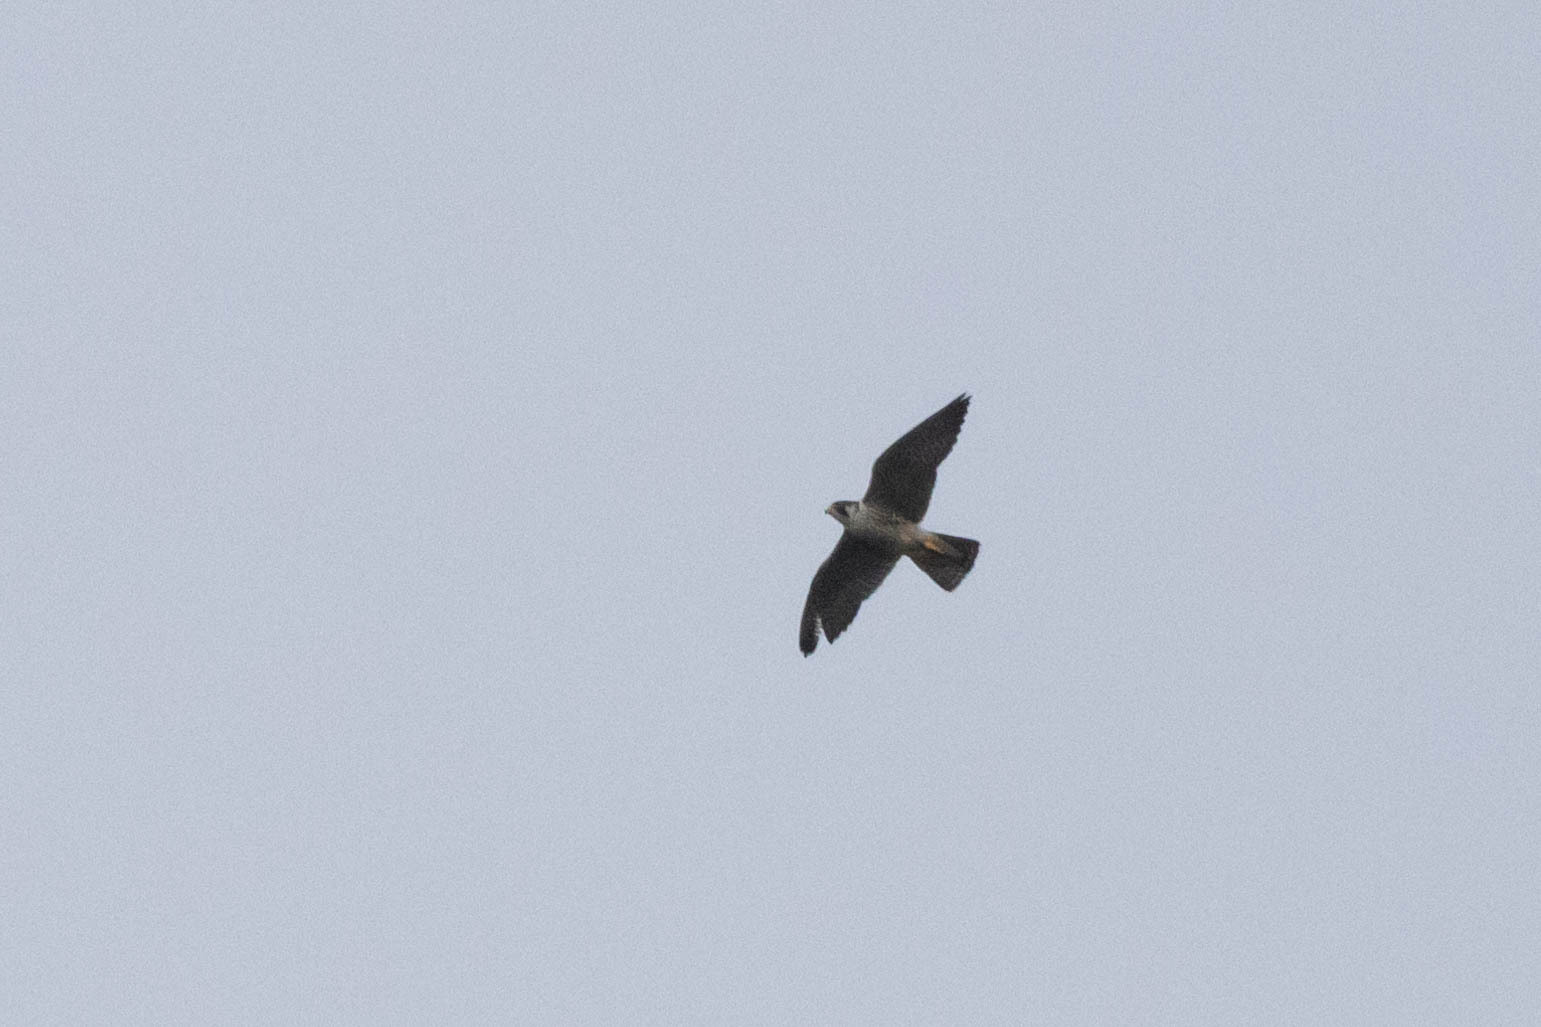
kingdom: Animalia
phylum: Chordata
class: Aves
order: Falconiformes
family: Falconidae
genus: Falco
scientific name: Falco peregrinus
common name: Peregrine falcon
